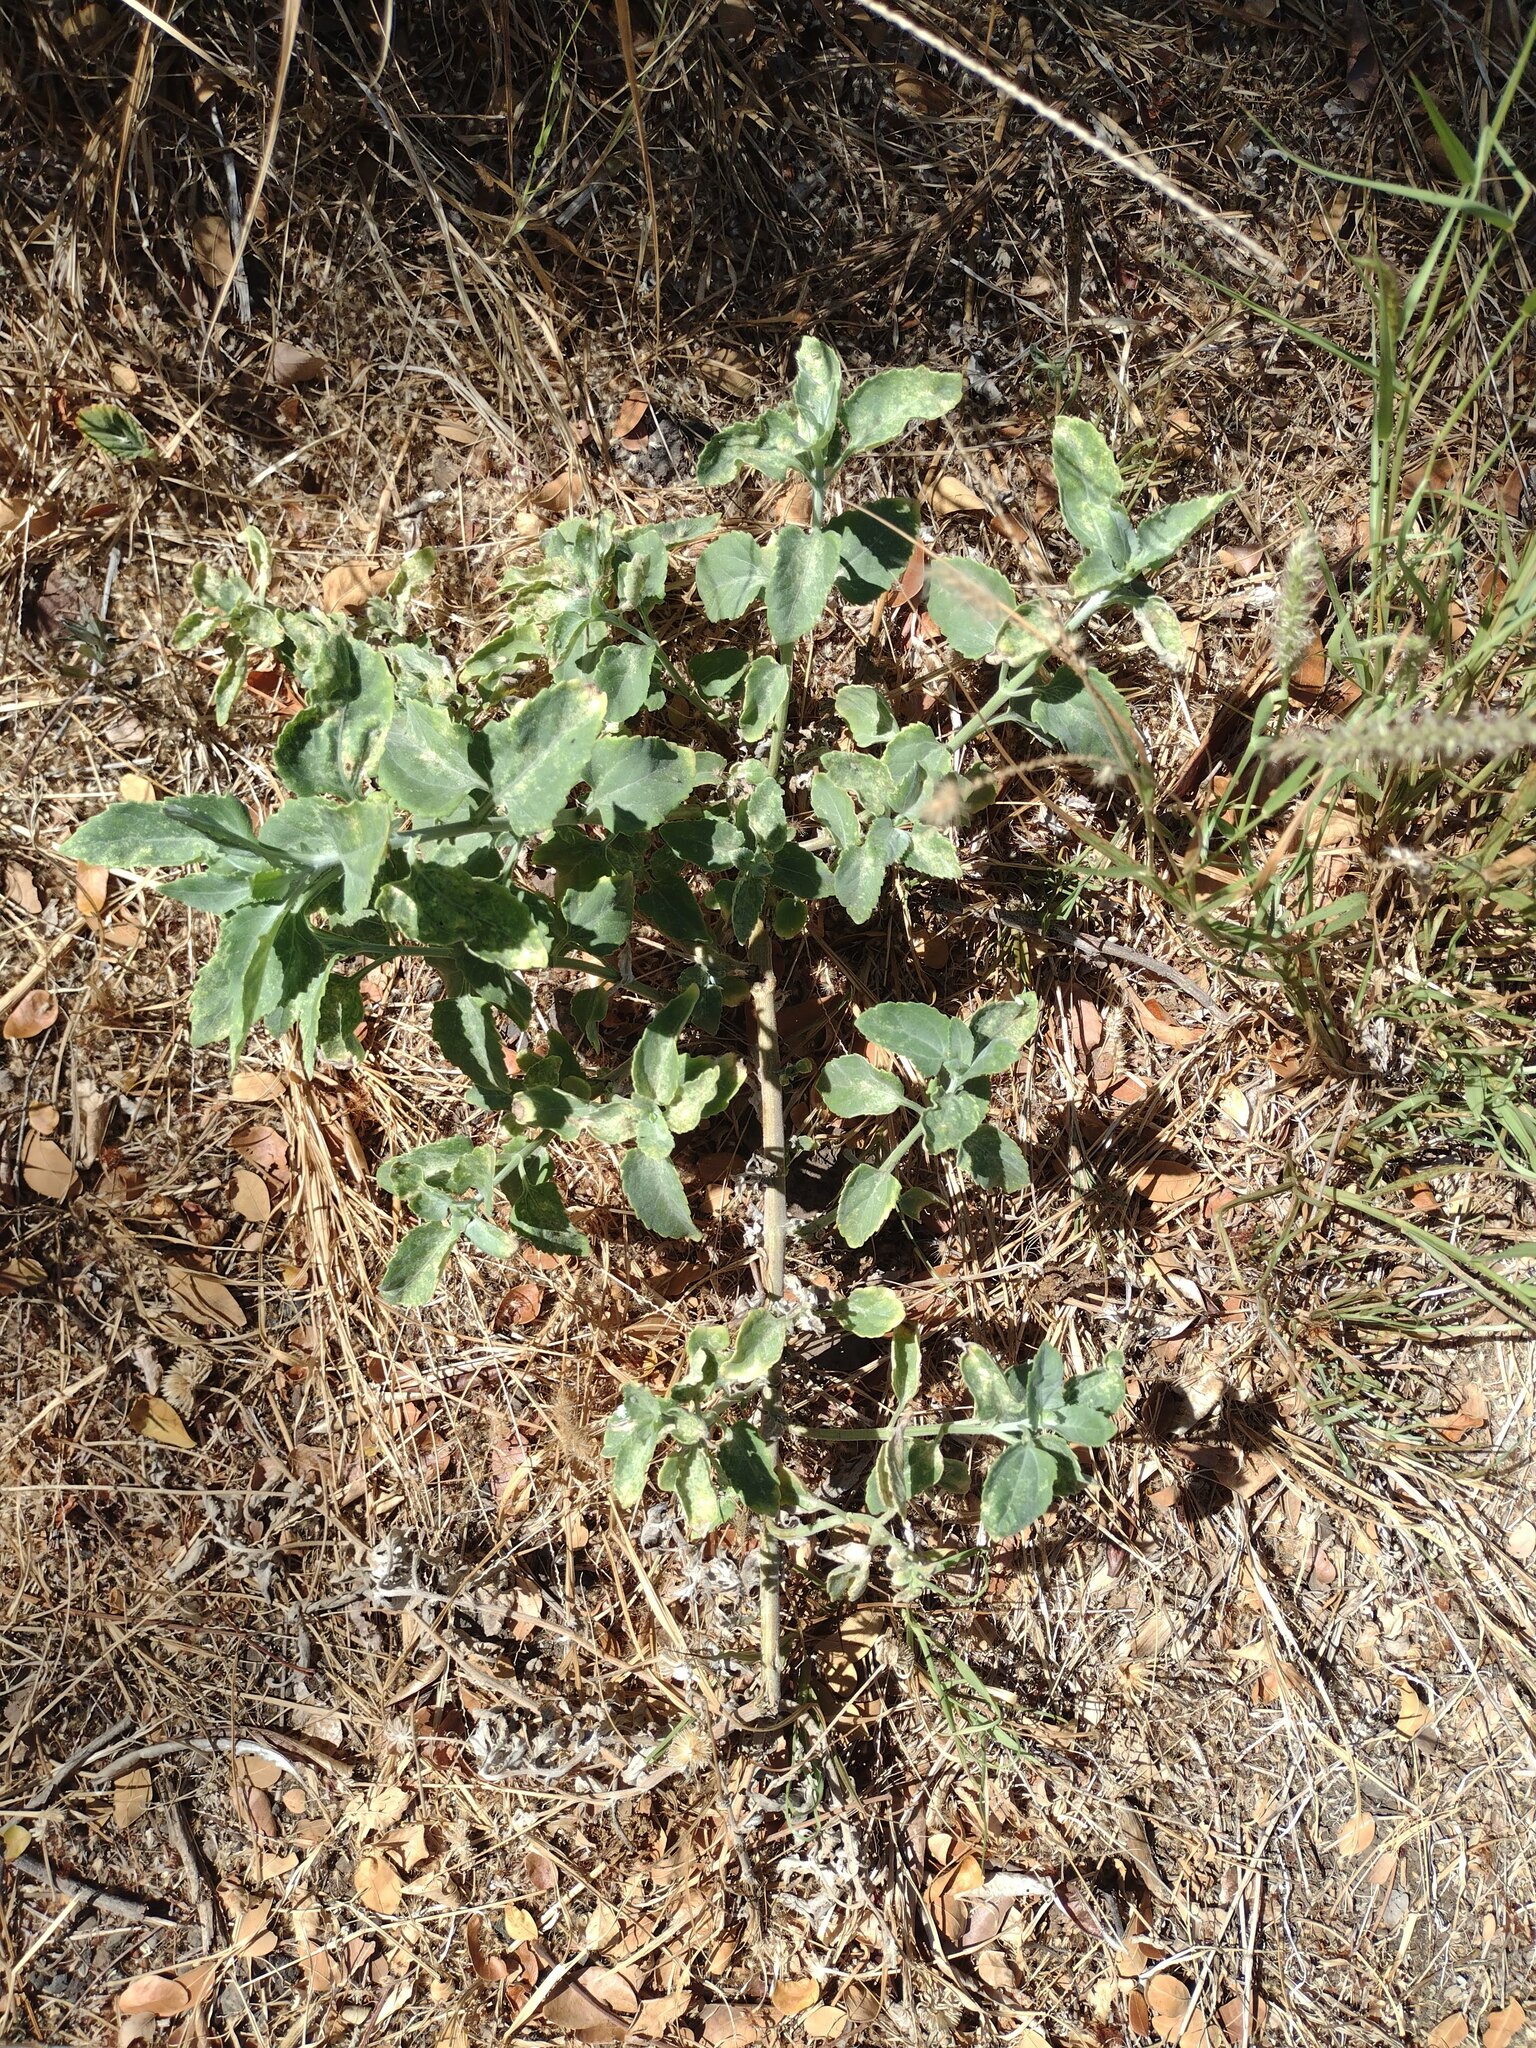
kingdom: Plantae
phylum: Tracheophyta
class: Magnoliopsida
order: Asterales
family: Asteraceae
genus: Verbesina
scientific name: Verbesina encelioides
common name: Golden crownbeard
